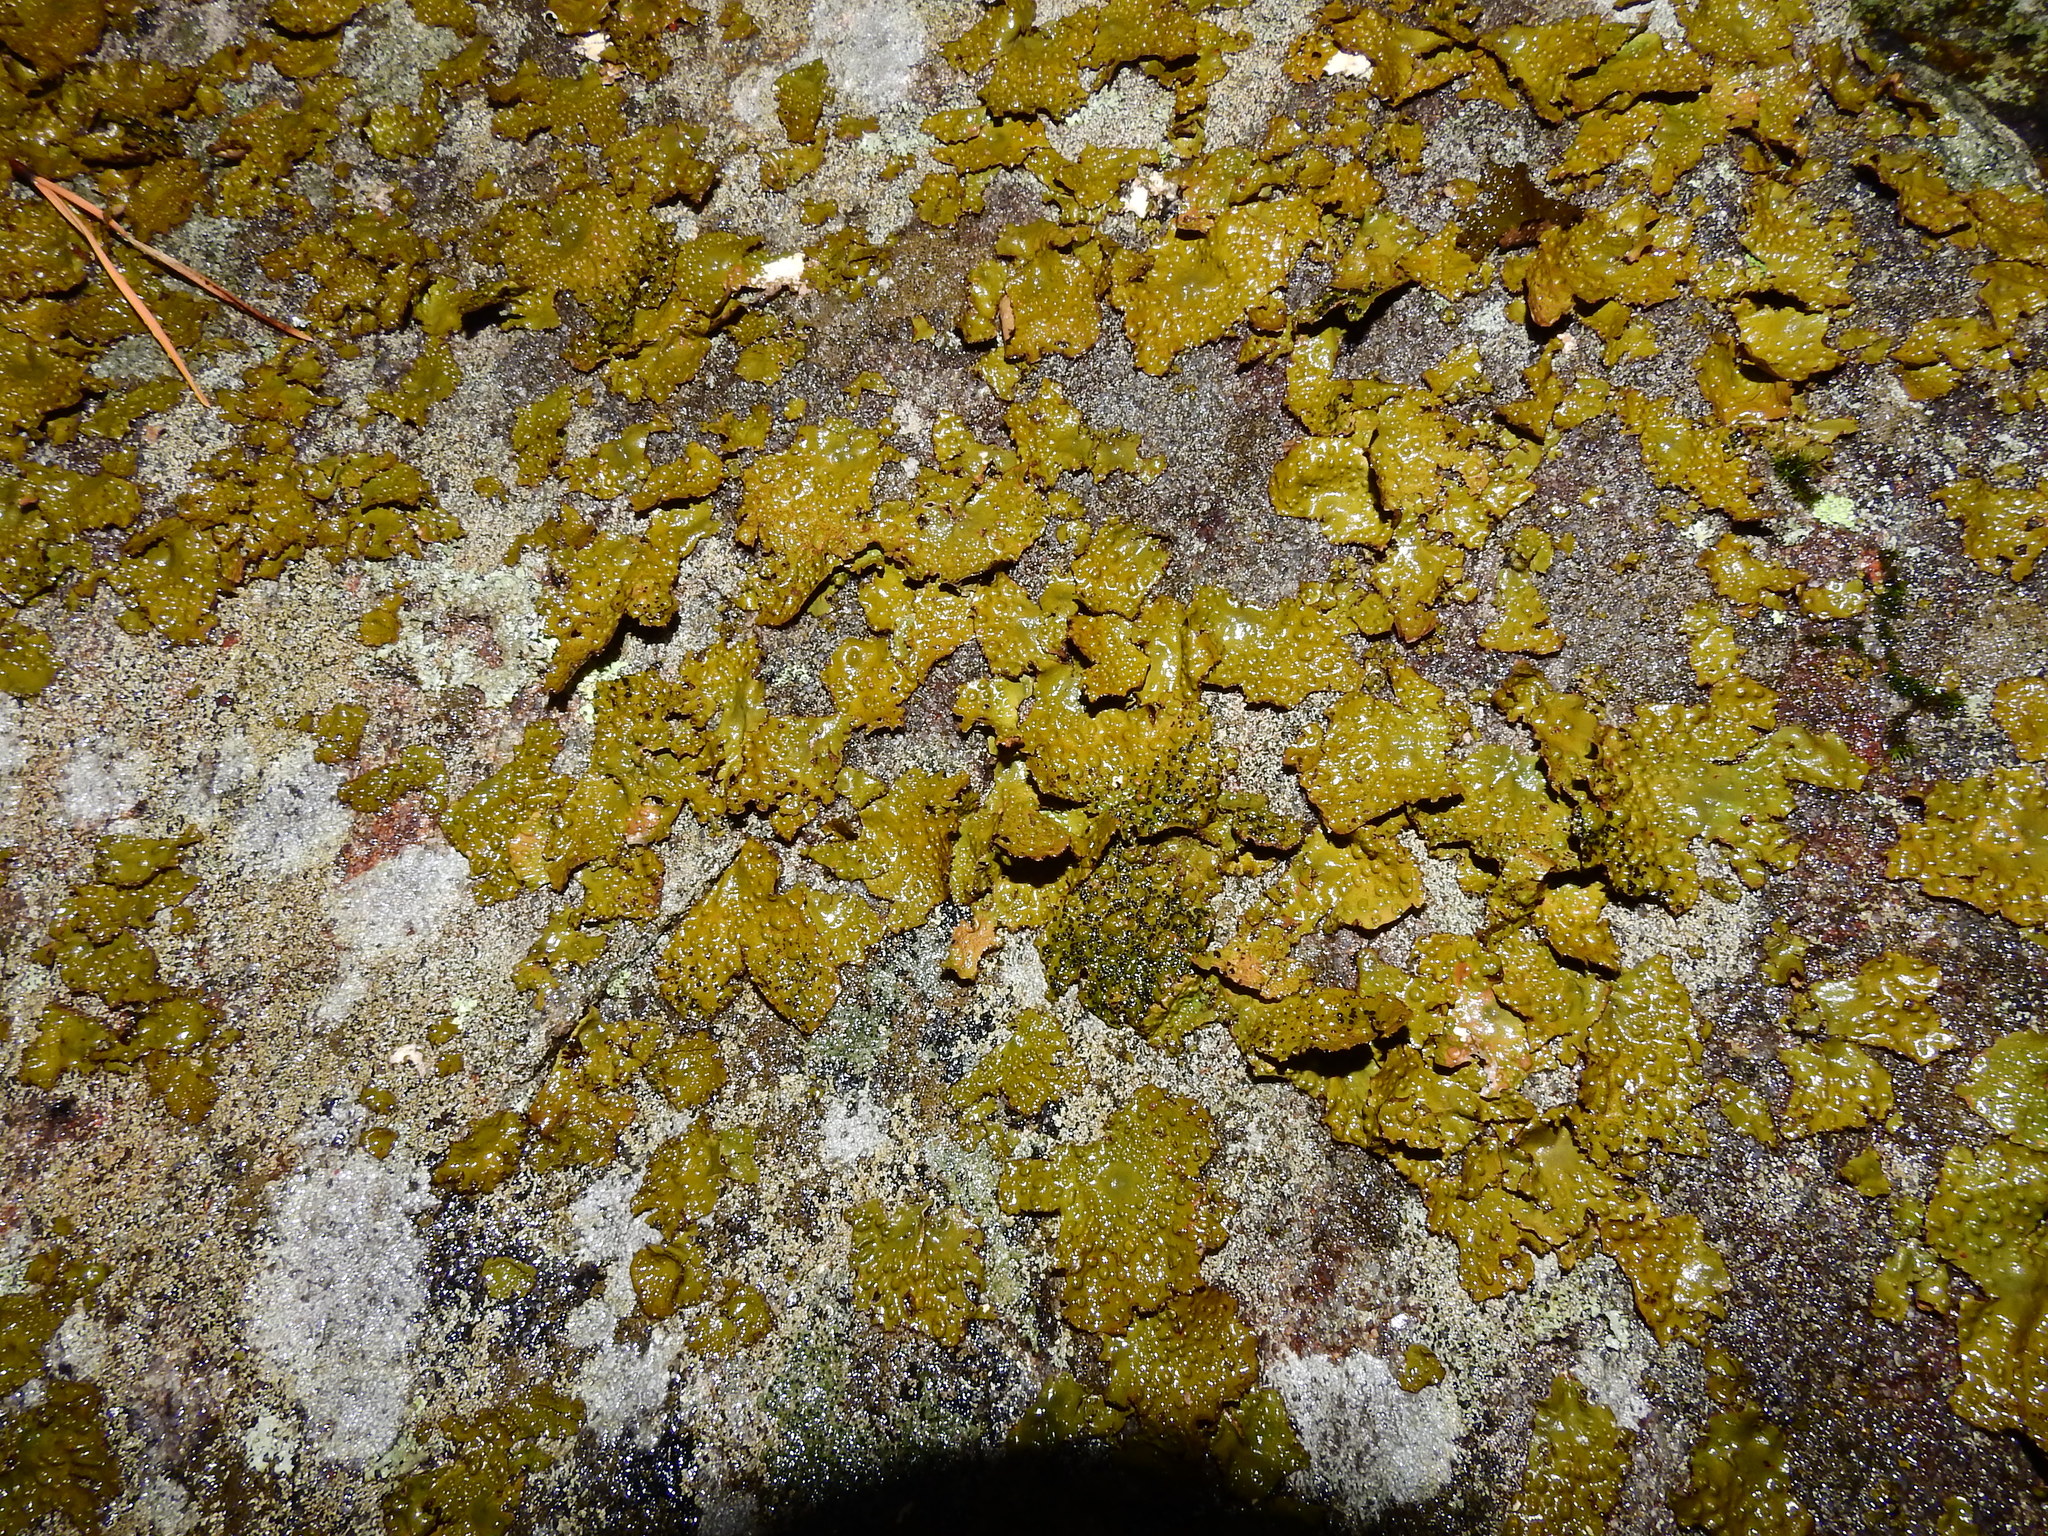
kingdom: Fungi
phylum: Ascomycota
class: Lecanoromycetes
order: Umbilicariales
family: Umbilicariaceae
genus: Lasallia
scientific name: Lasallia pensylvanica
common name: Blackened toadskin lichen
